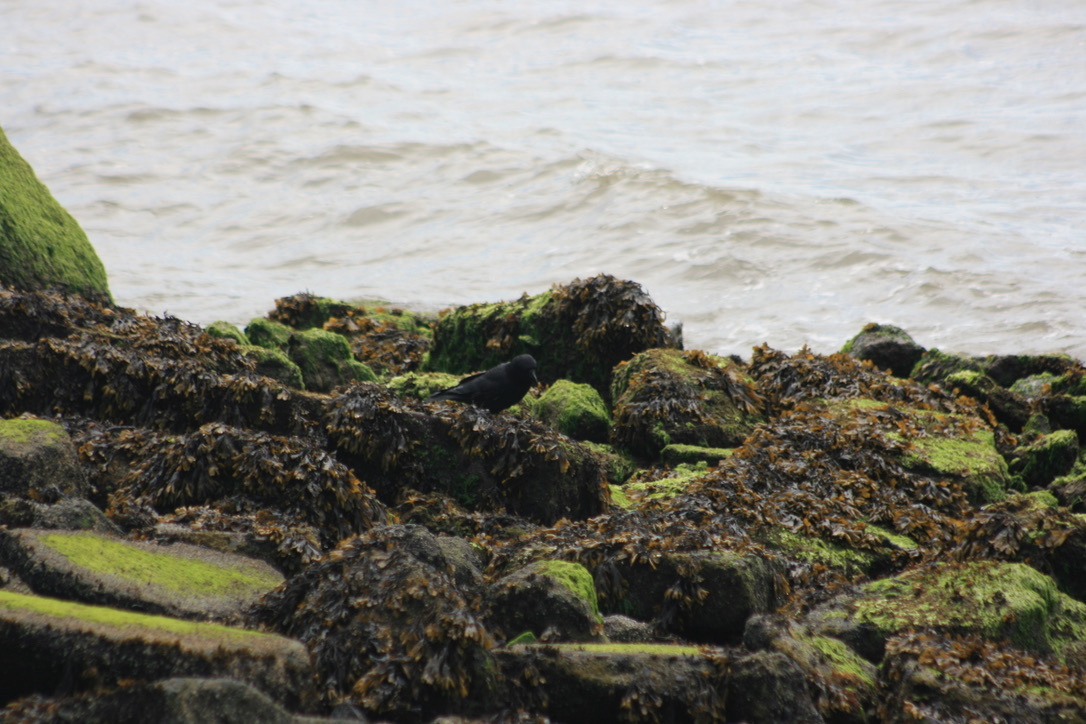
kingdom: Animalia
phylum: Chordata
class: Aves
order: Passeriformes
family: Corvidae
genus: Corvus
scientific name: Corvus brachyrhynchos
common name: American crow
